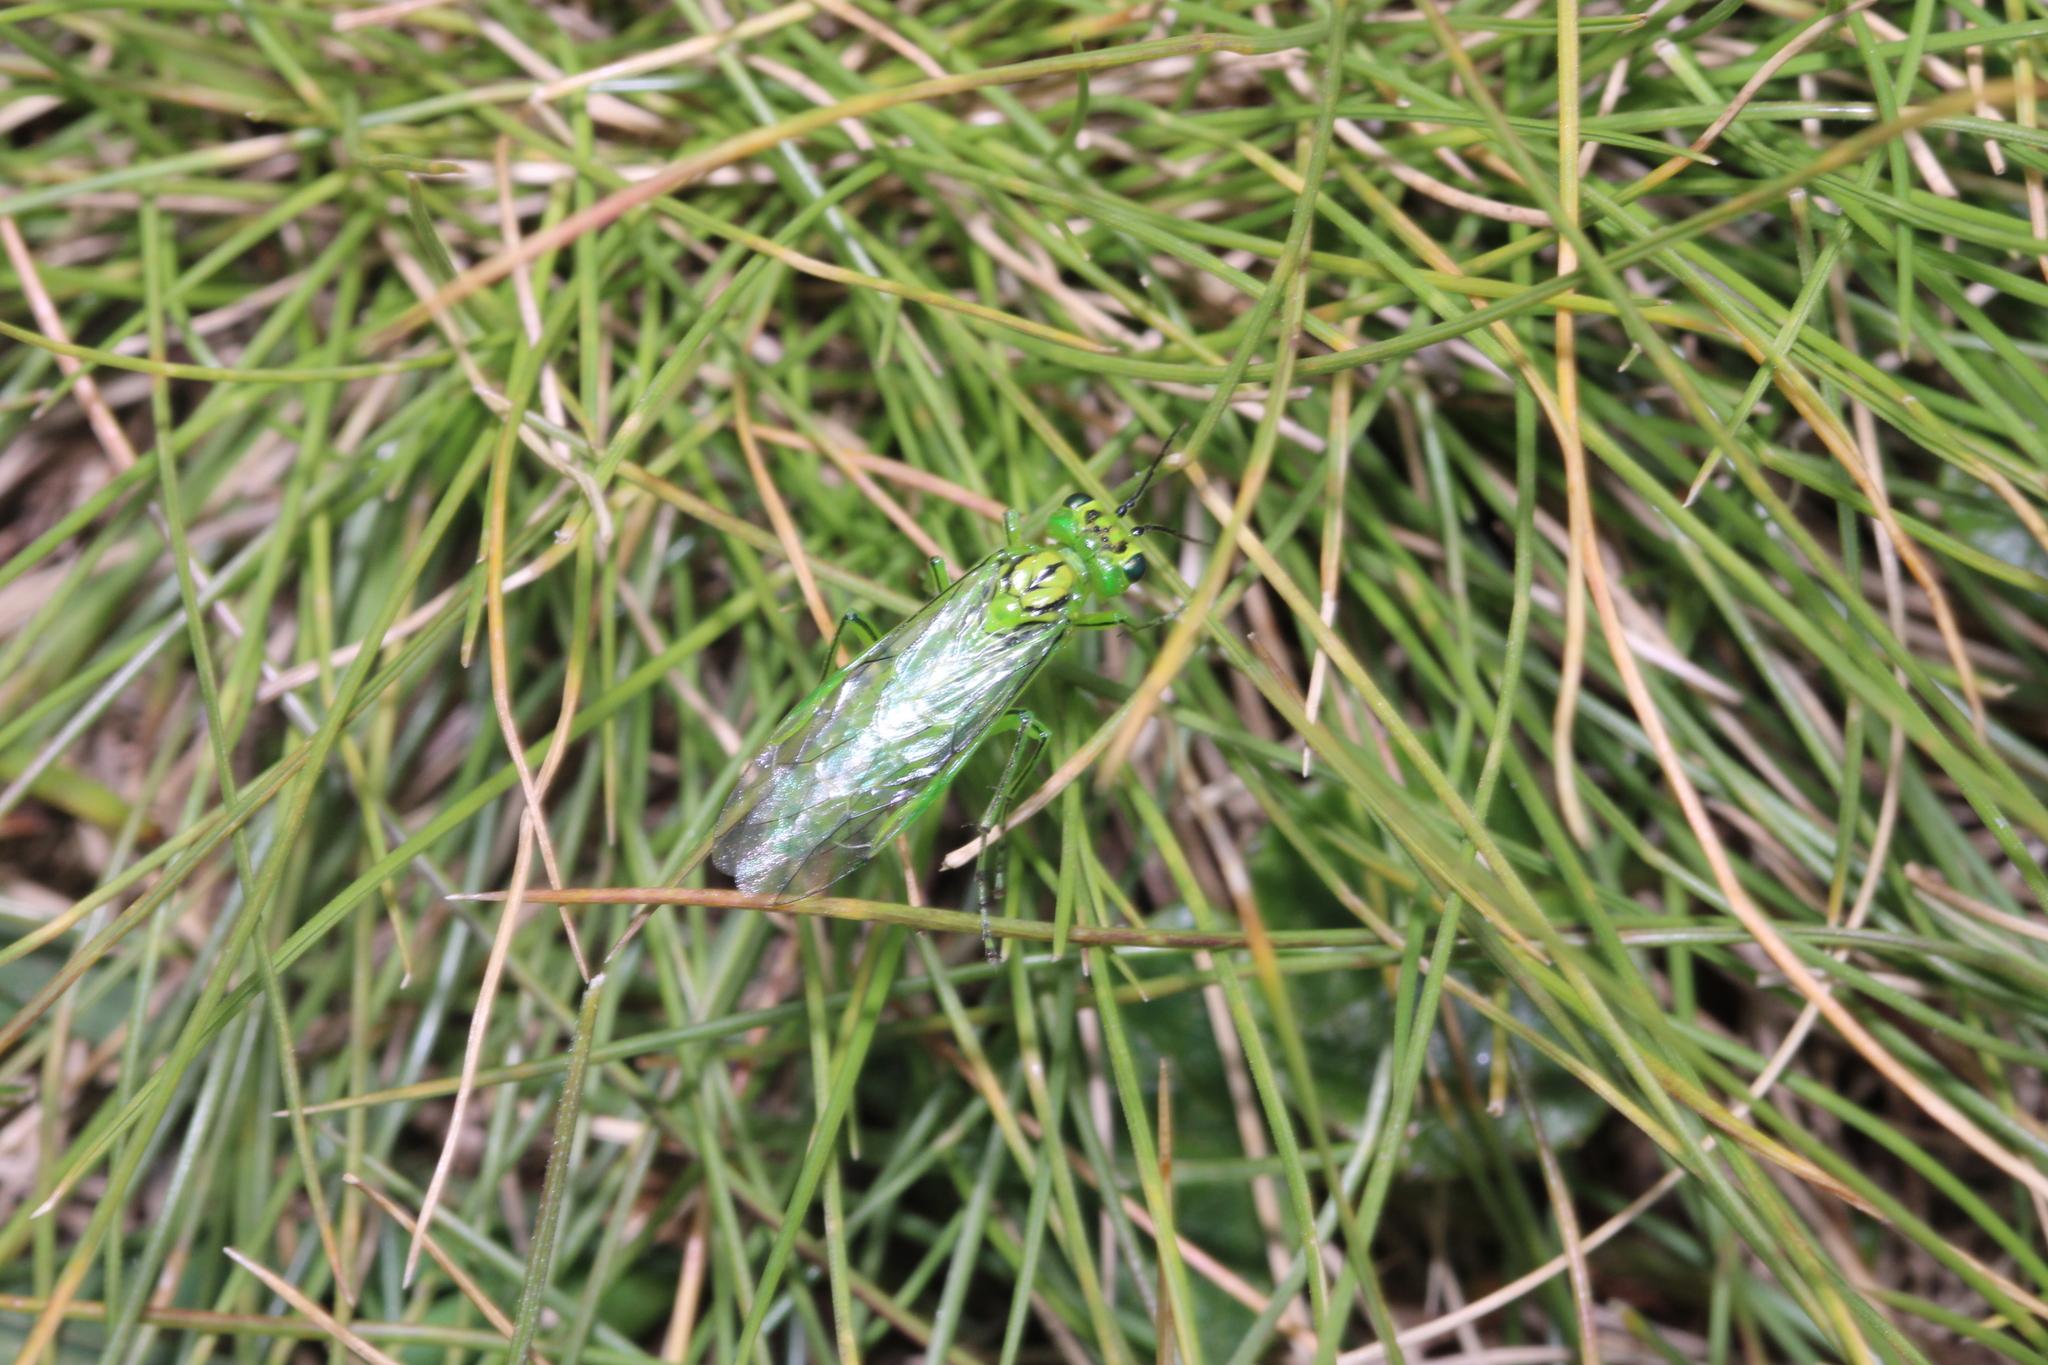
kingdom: Animalia
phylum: Arthropoda
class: Insecta
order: Hymenoptera
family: Tenthredinidae
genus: Rhogogaster
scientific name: Rhogogaster punctulata
